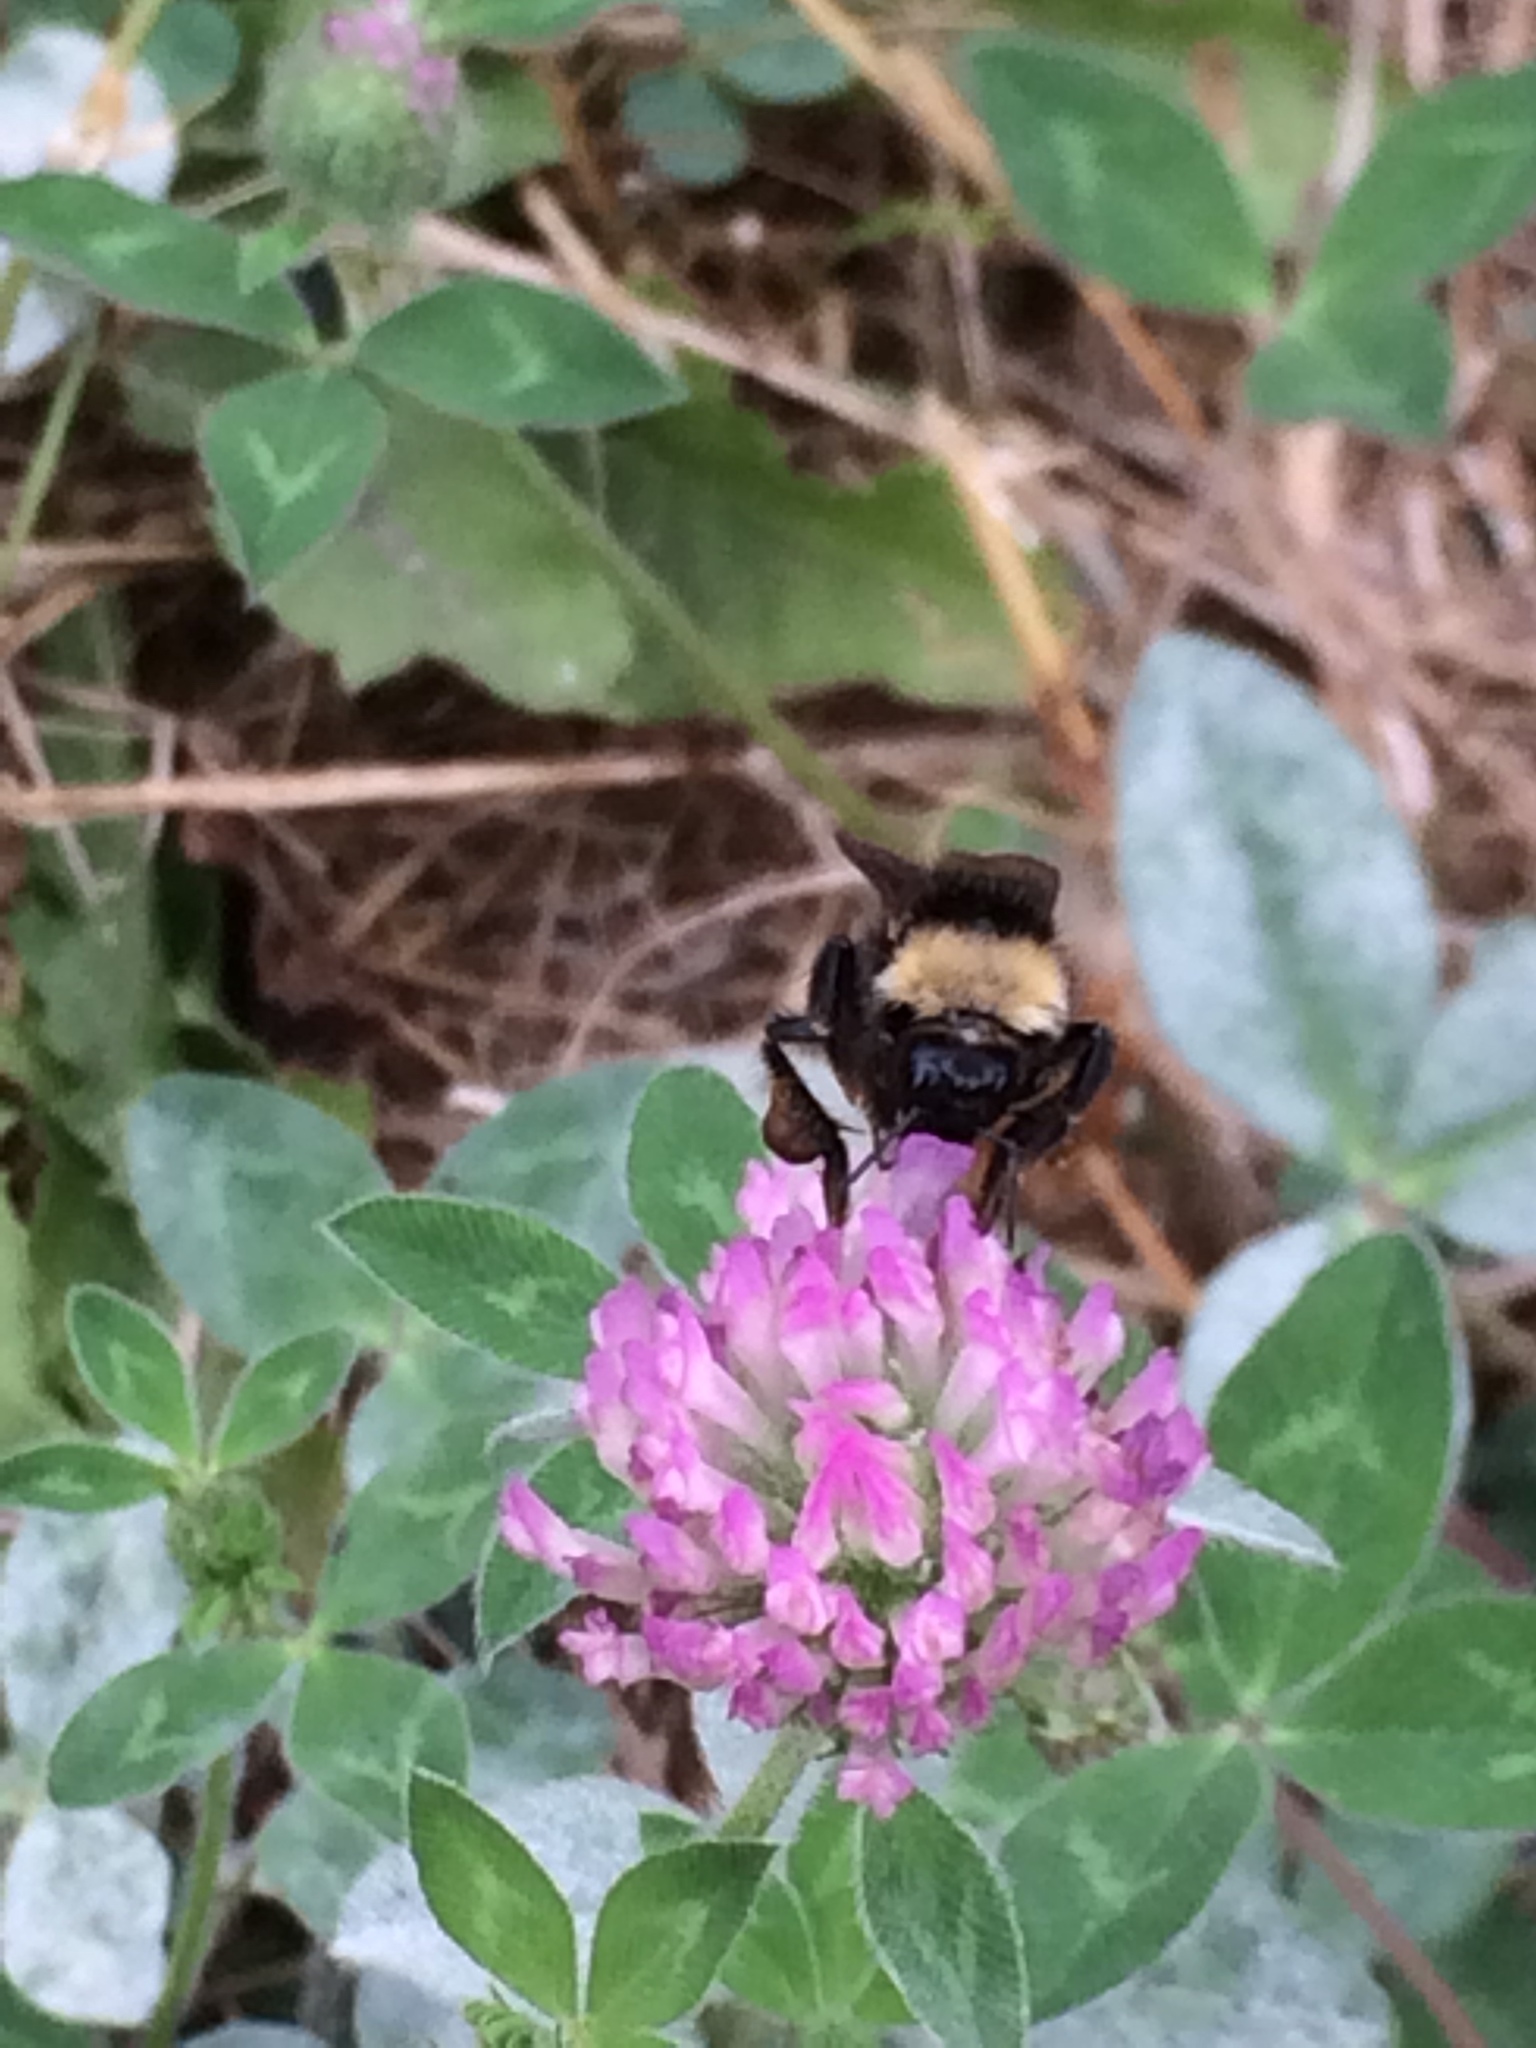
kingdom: Animalia
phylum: Arthropoda
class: Insecta
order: Hymenoptera
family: Apidae
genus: Bombus
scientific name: Bombus californicus
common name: California bumble bee
